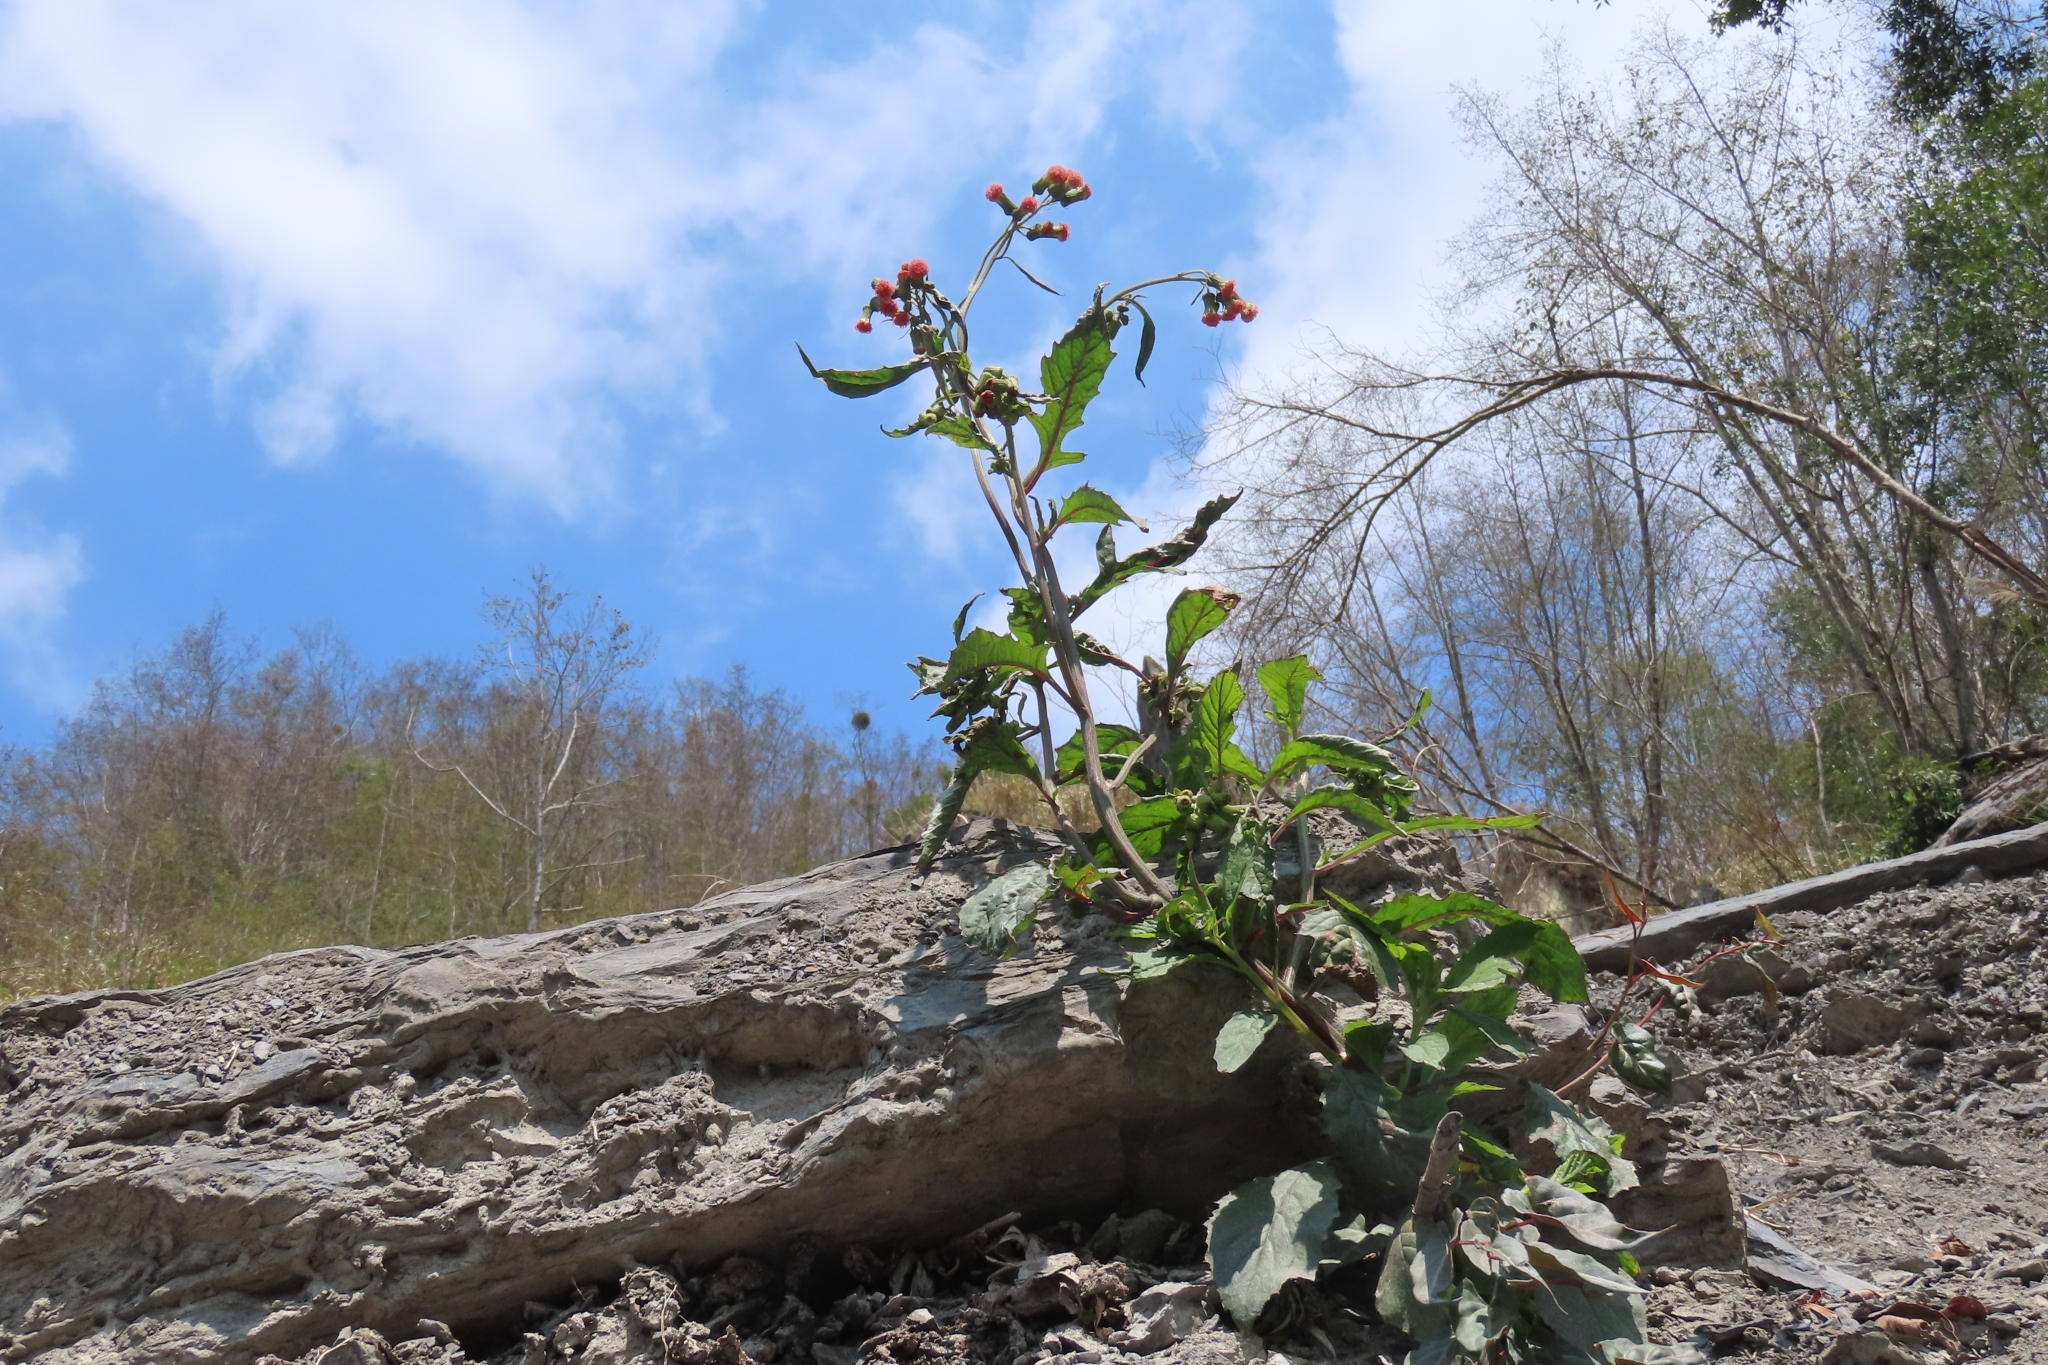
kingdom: Plantae
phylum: Tracheophyta
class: Magnoliopsida
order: Asterales
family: Asteraceae
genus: Crassocephalum
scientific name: Crassocephalum crepidioides
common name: Redflower ragleaf
